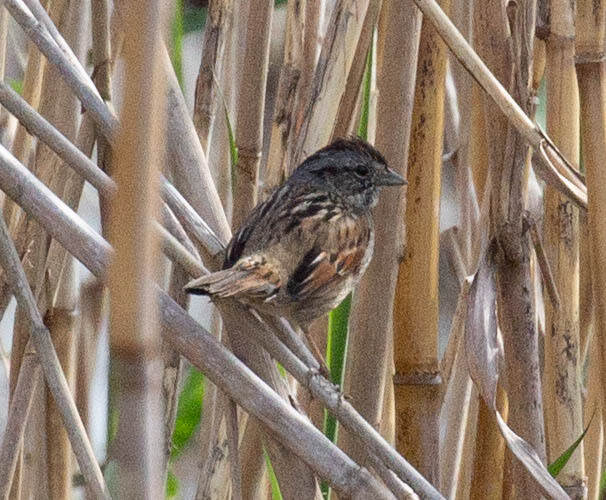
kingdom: Animalia
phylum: Chordata
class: Aves
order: Passeriformes
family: Passerellidae
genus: Melospiza
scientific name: Melospiza georgiana
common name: Swamp sparrow
